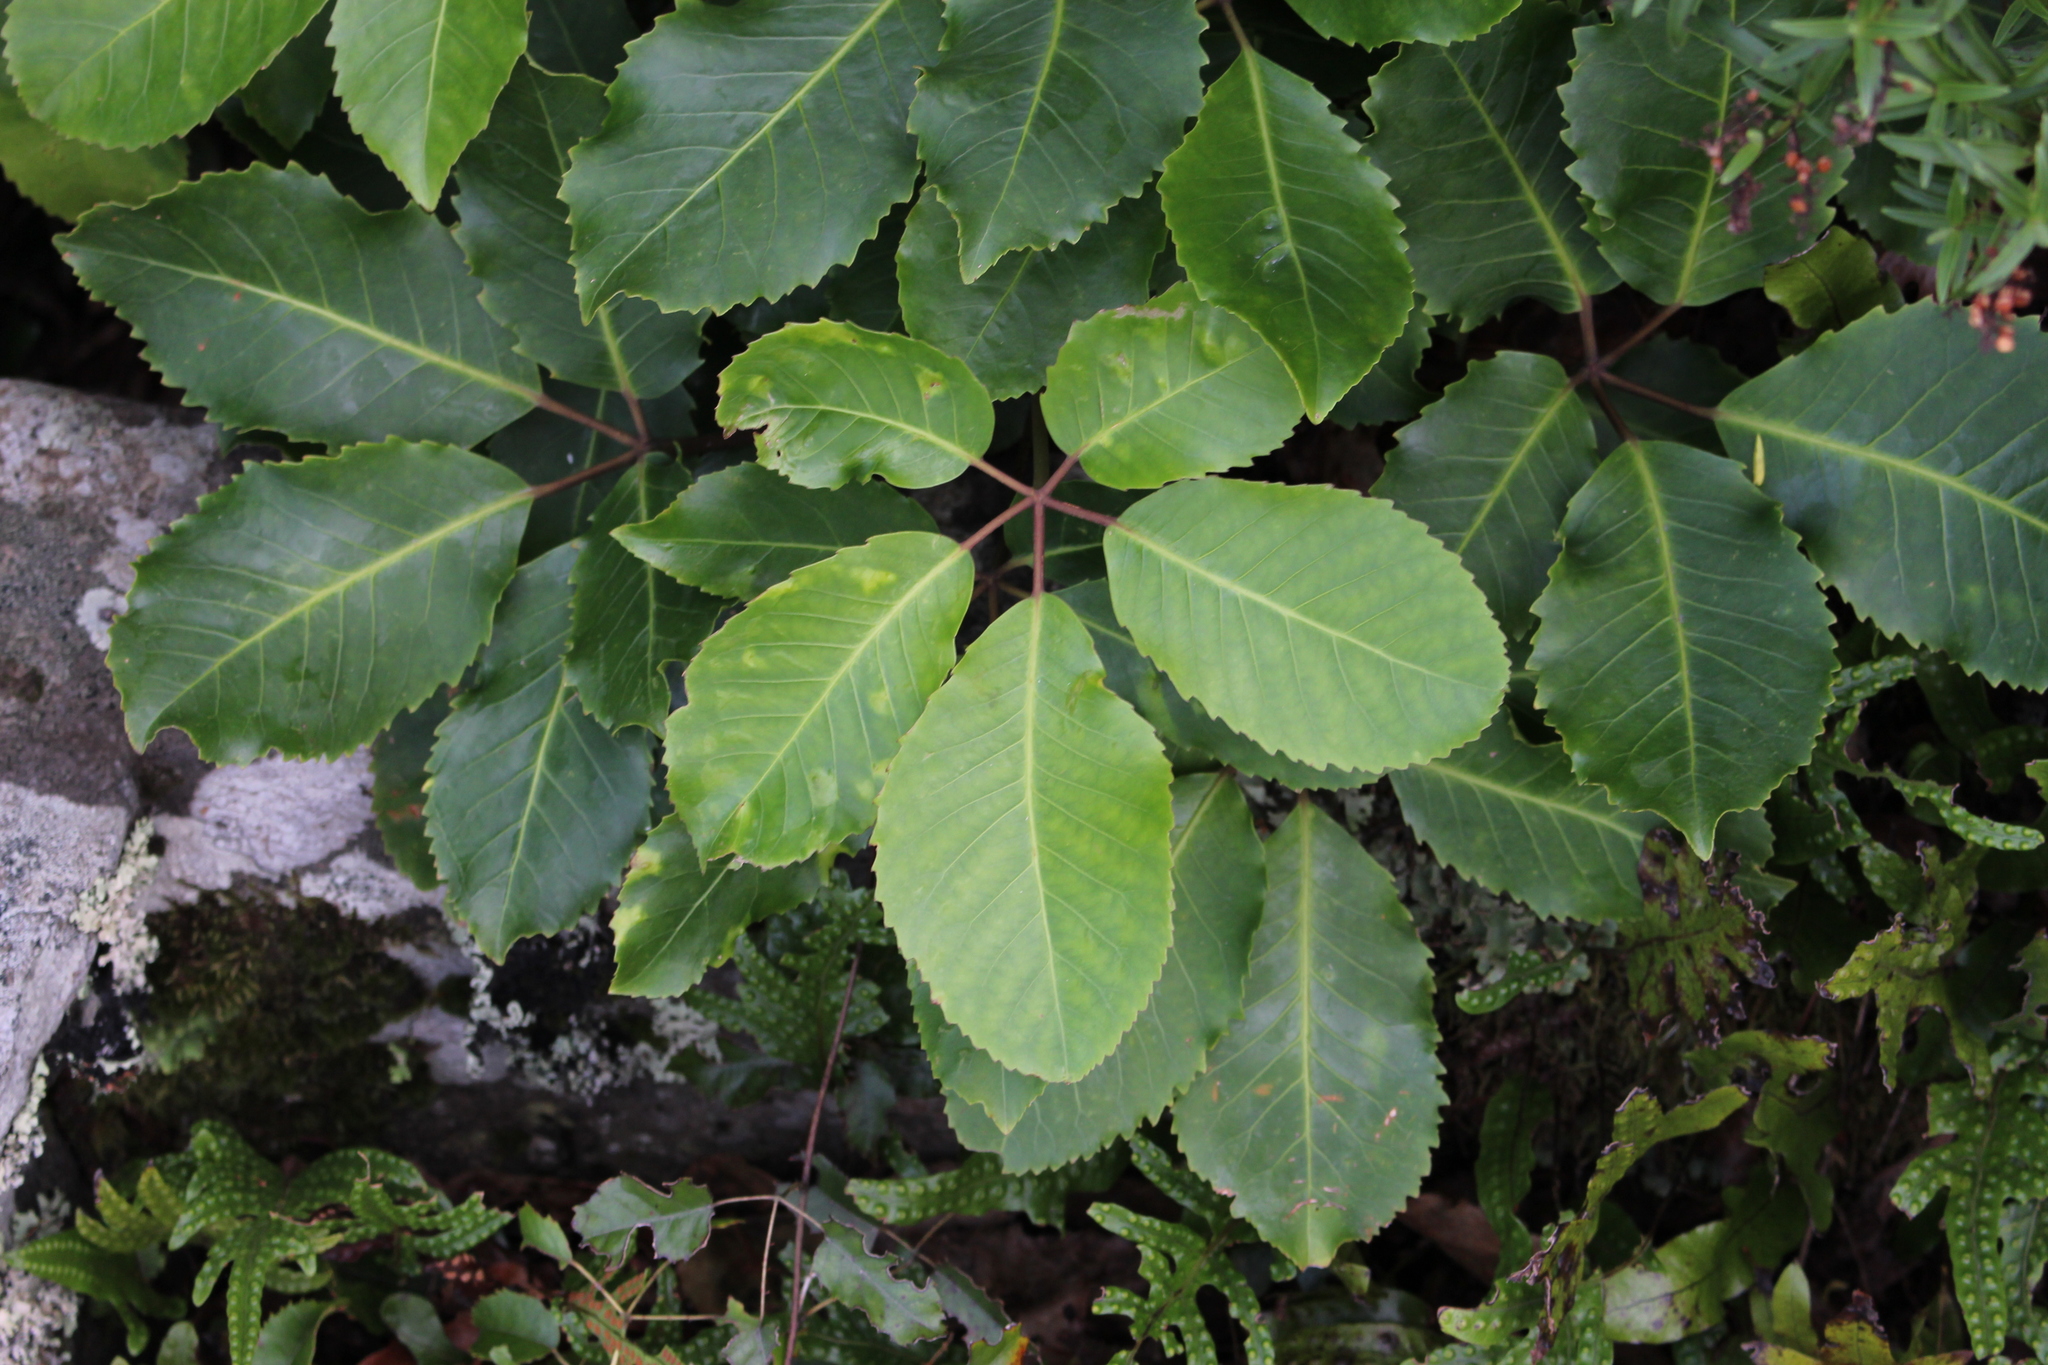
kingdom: Plantae
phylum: Tracheophyta
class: Magnoliopsida
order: Apiales
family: Araliaceae
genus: Neopanax
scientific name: Neopanax arboreus
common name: Five-fingers
